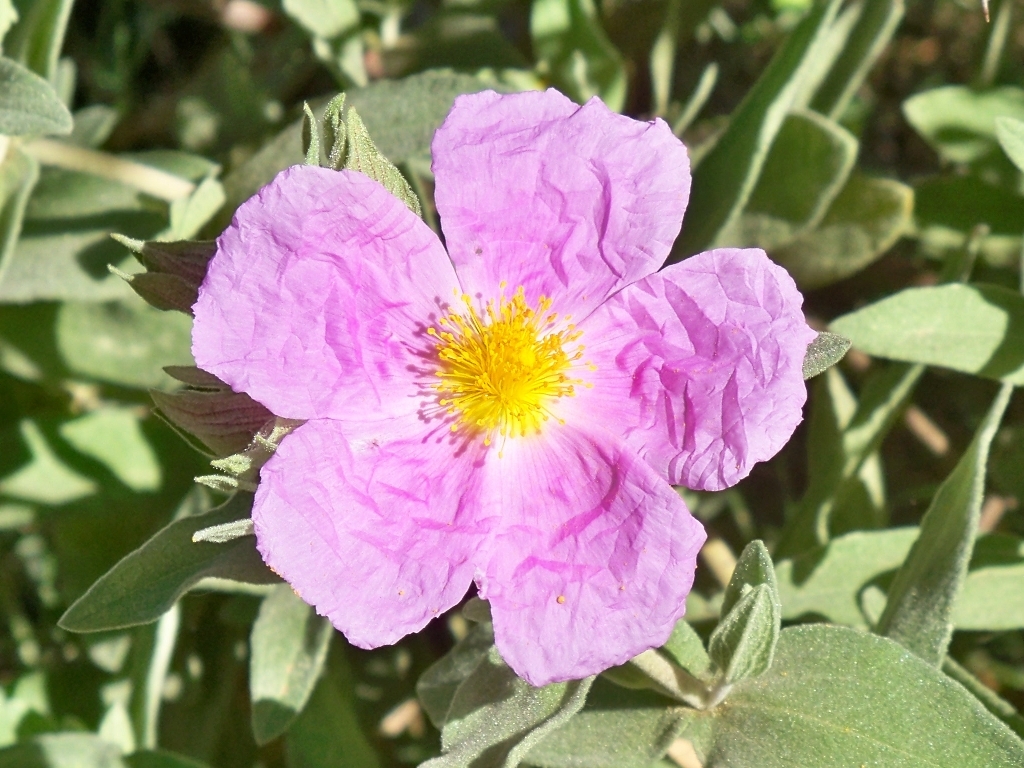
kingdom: Plantae
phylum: Tracheophyta
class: Magnoliopsida
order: Malvales
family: Cistaceae
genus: Cistus
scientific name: Cistus albidus
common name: White-leaf rock-rose
